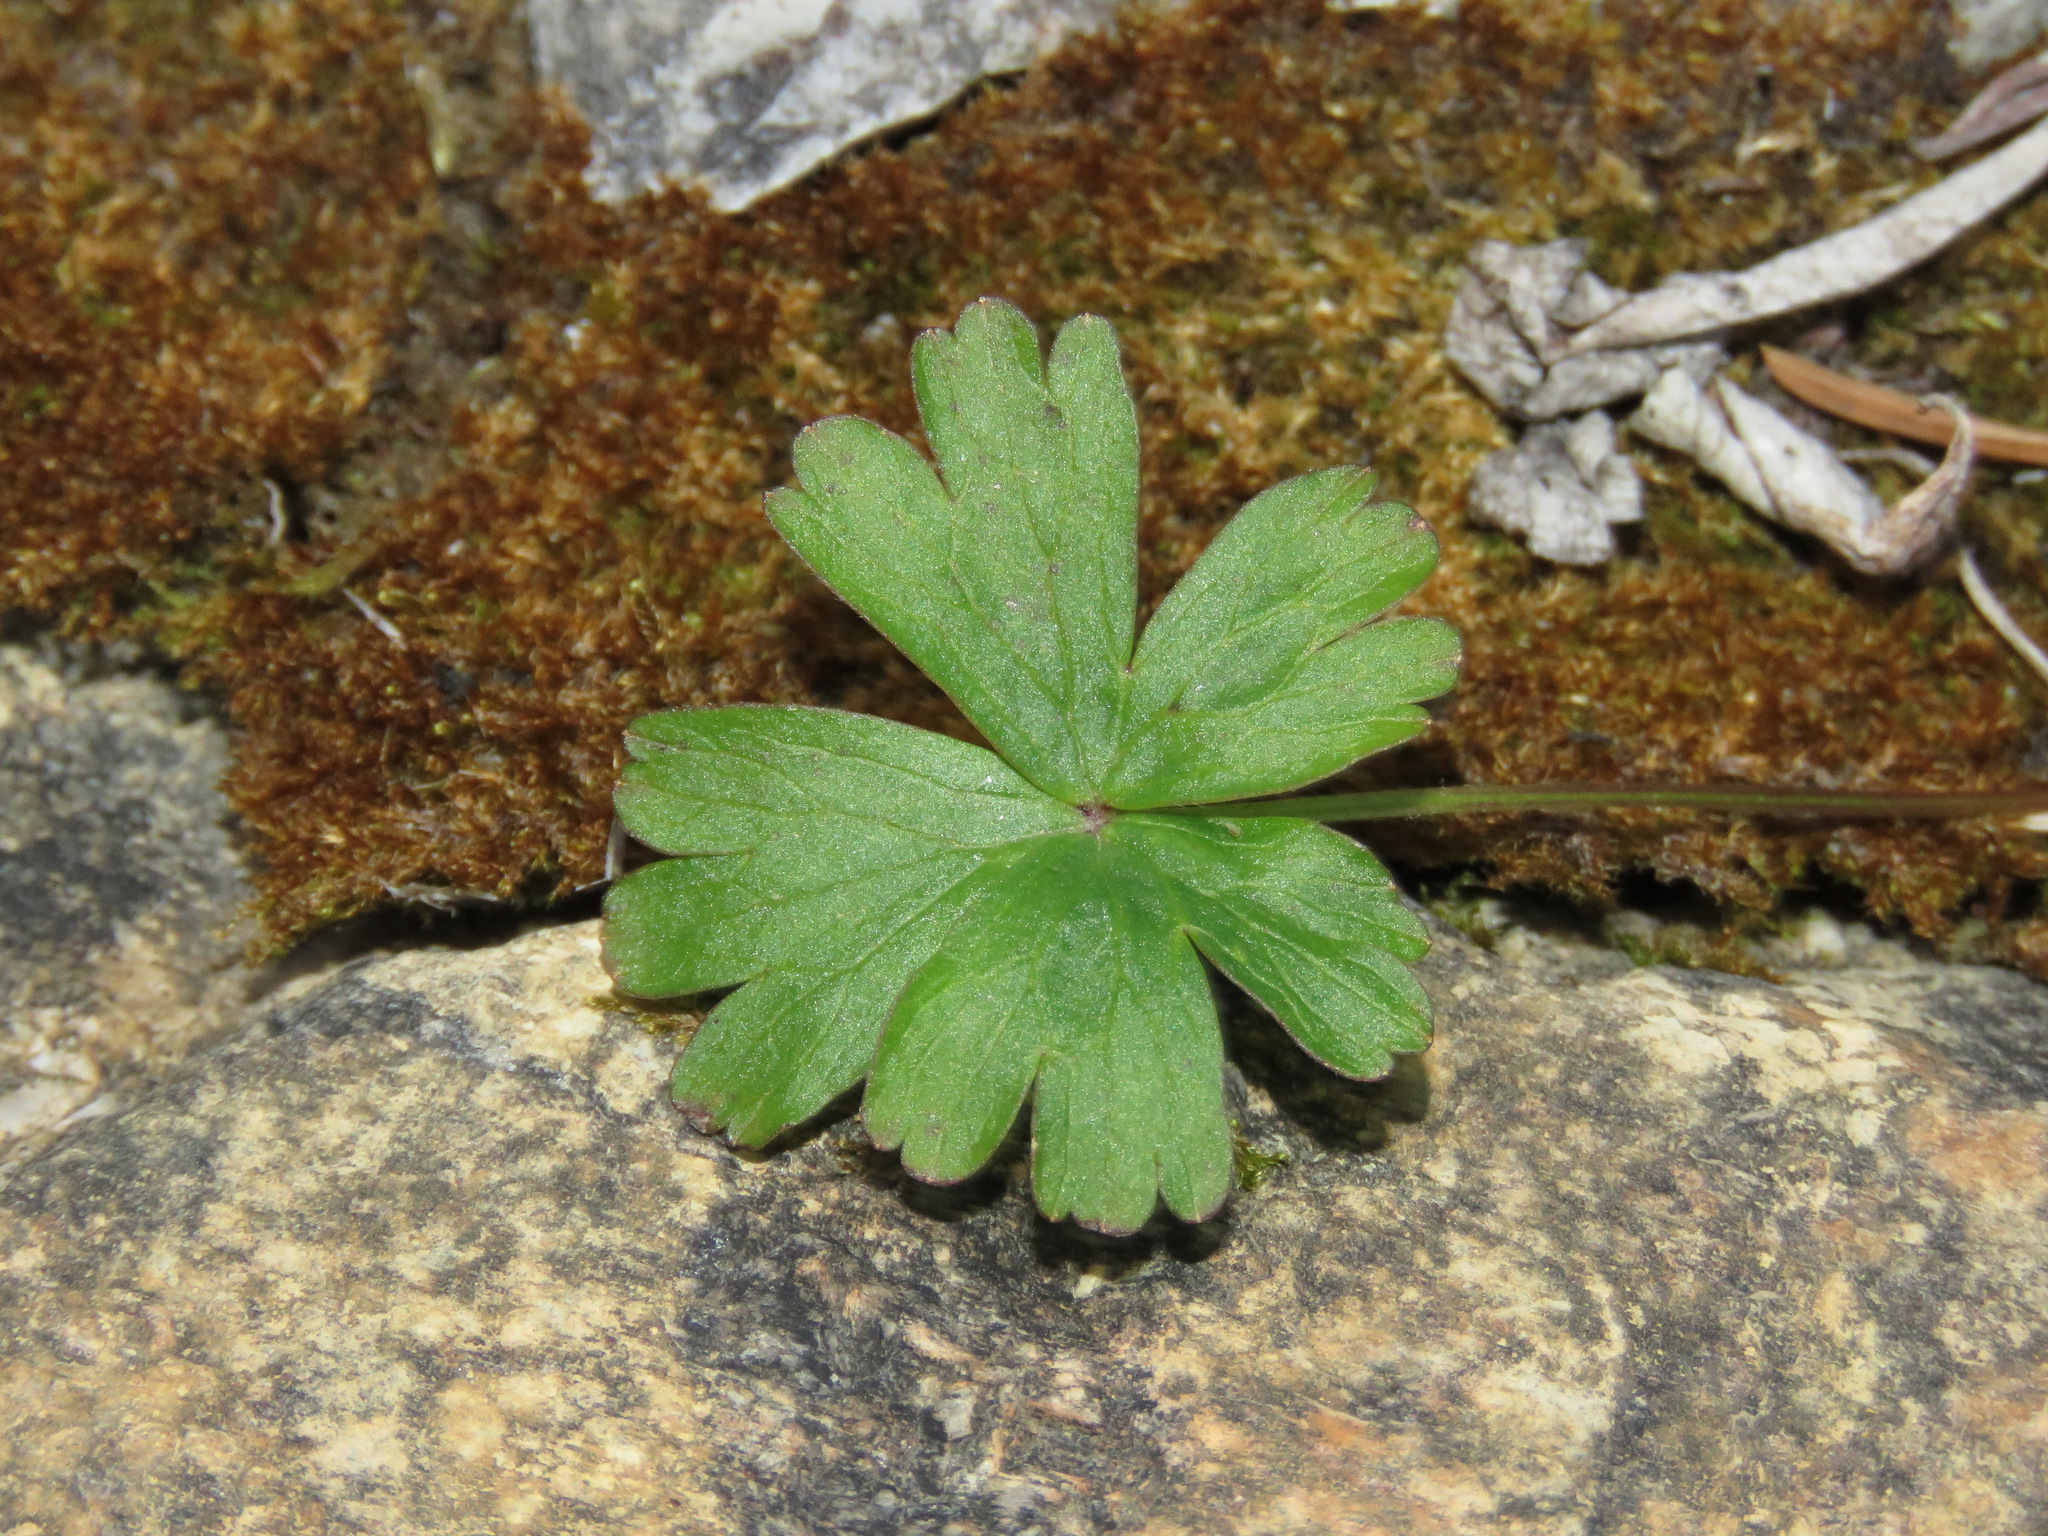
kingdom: Plantae
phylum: Tracheophyta
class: Magnoliopsida
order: Ranunculales
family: Ranunculaceae
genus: Anemone
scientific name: Anemone parviflora
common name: Northern anemone
